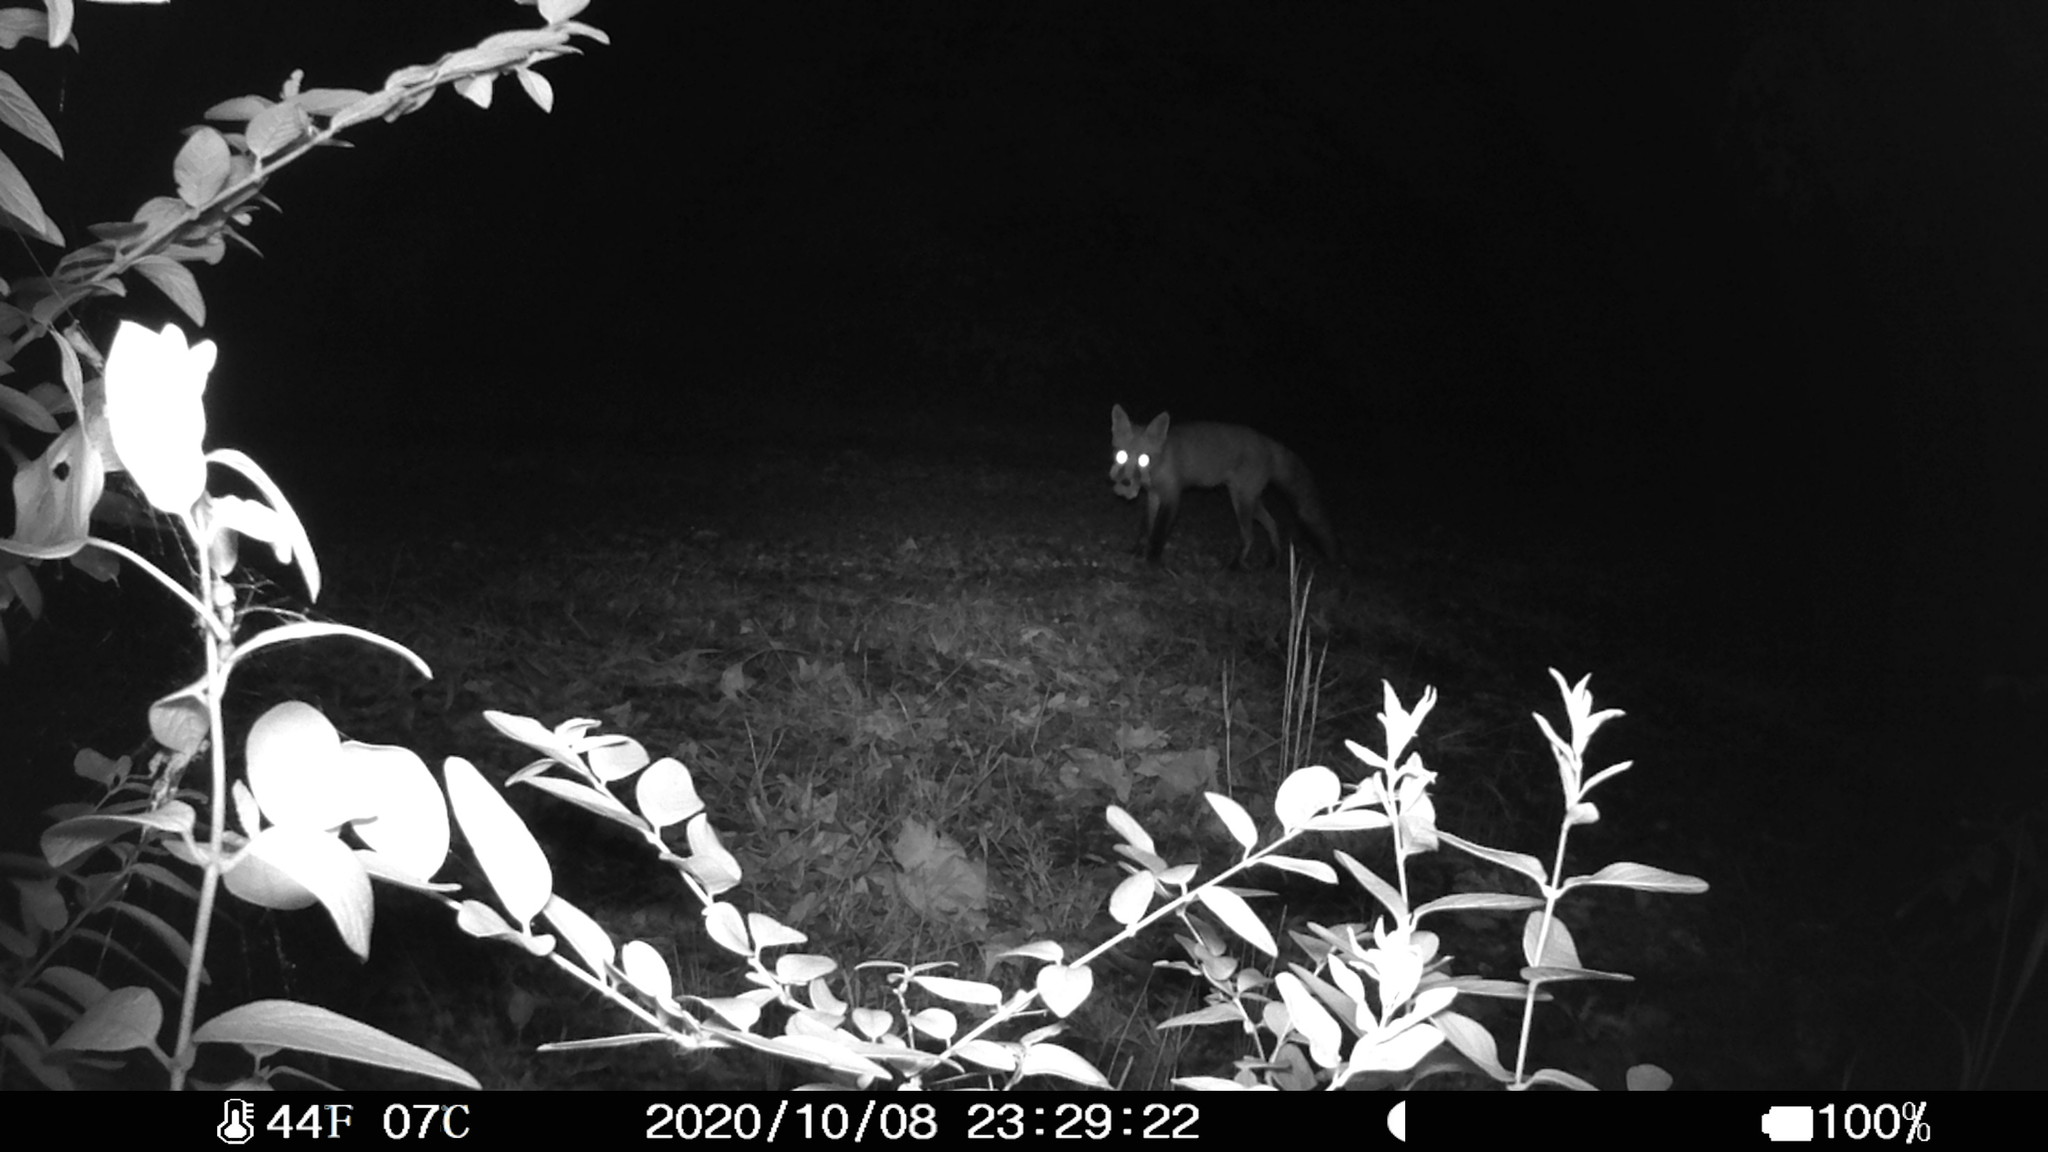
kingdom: Animalia
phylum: Chordata
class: Mammalia
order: Carnivora
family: Canidae
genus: Vulpes
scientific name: Vulpes vulpes
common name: Red fox
